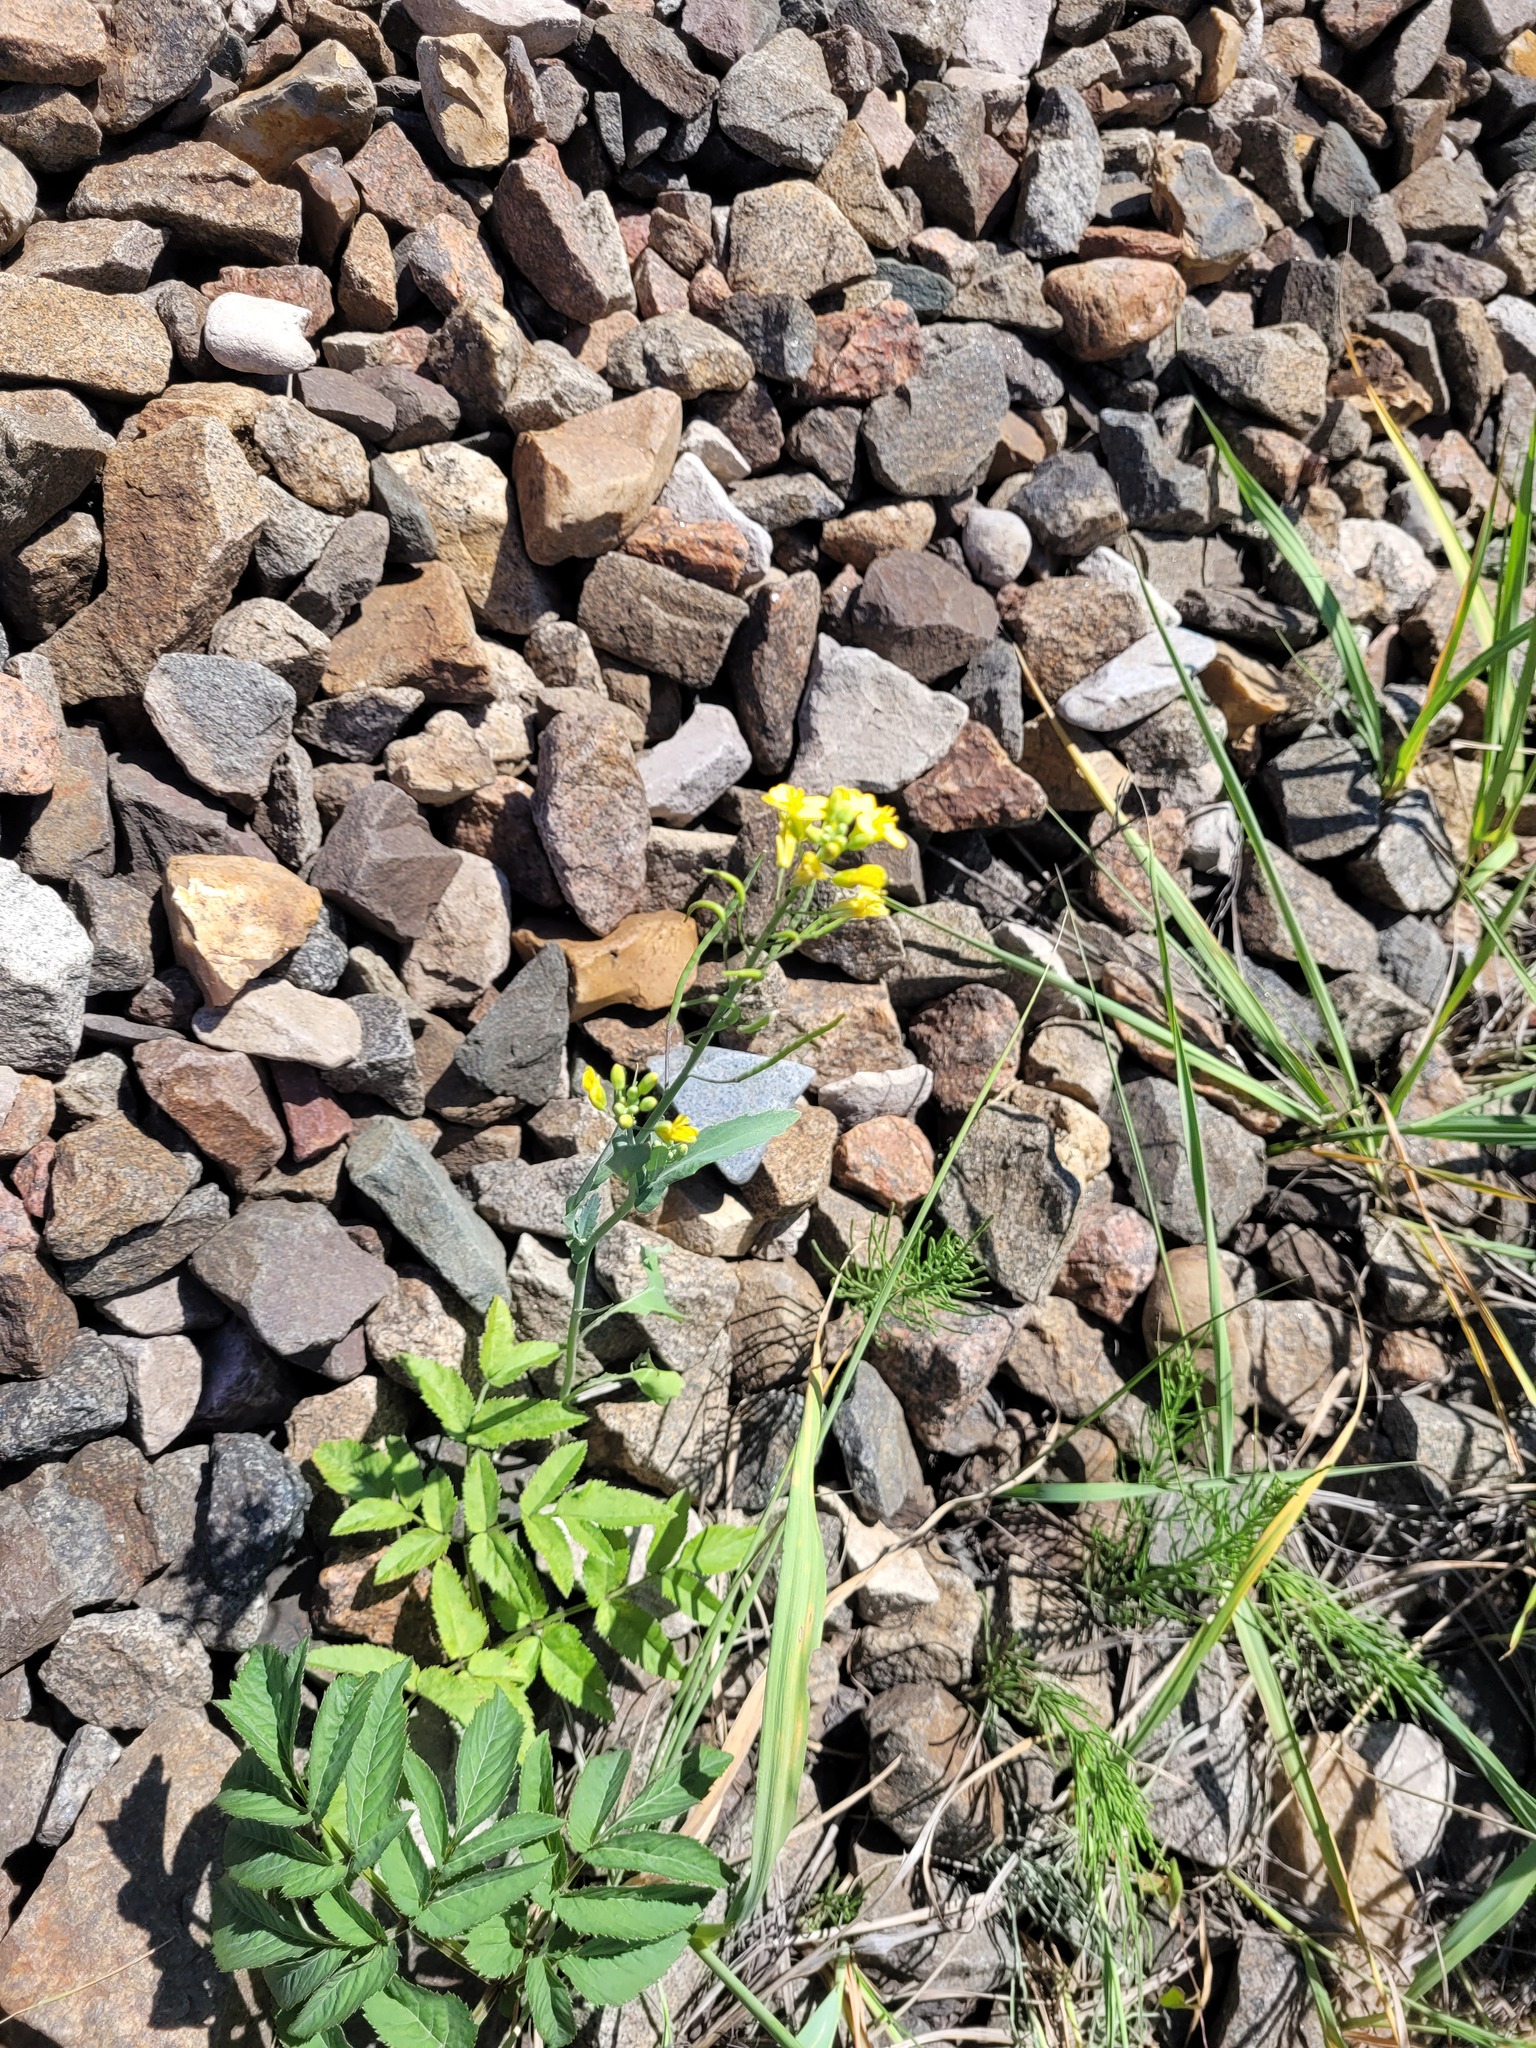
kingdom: Plantae
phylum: Tracheophyta
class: Magnoliopsida
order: Brassicales
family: Brassicaceae
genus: Brassica
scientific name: Brassica napus
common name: Rape
